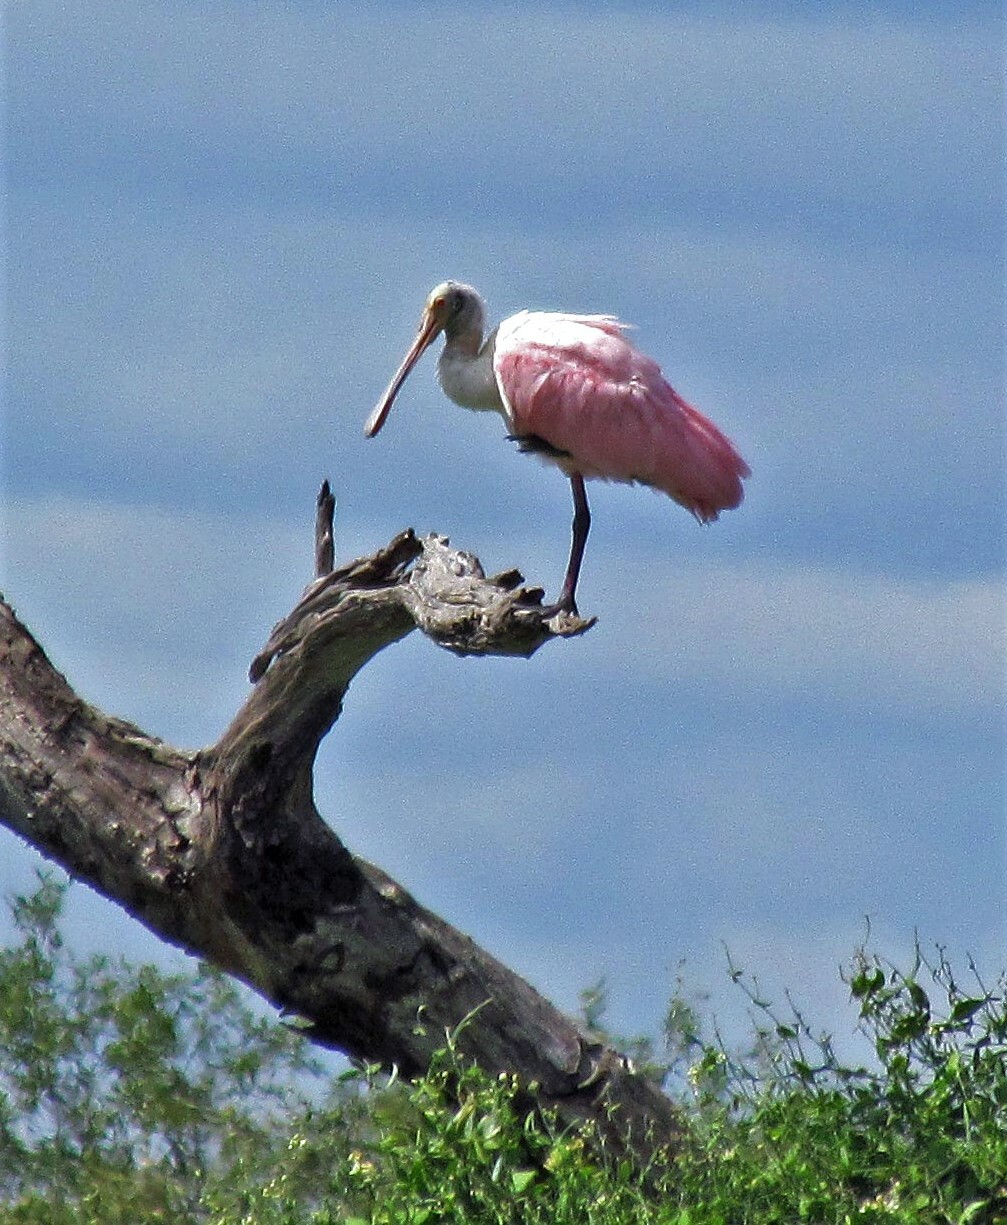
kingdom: Animalia
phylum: Chordata
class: Aves
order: Pelecaniformes
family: Threskiornithidae
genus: Platalea
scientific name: Platalea ajaja
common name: Roseate spoonbill
